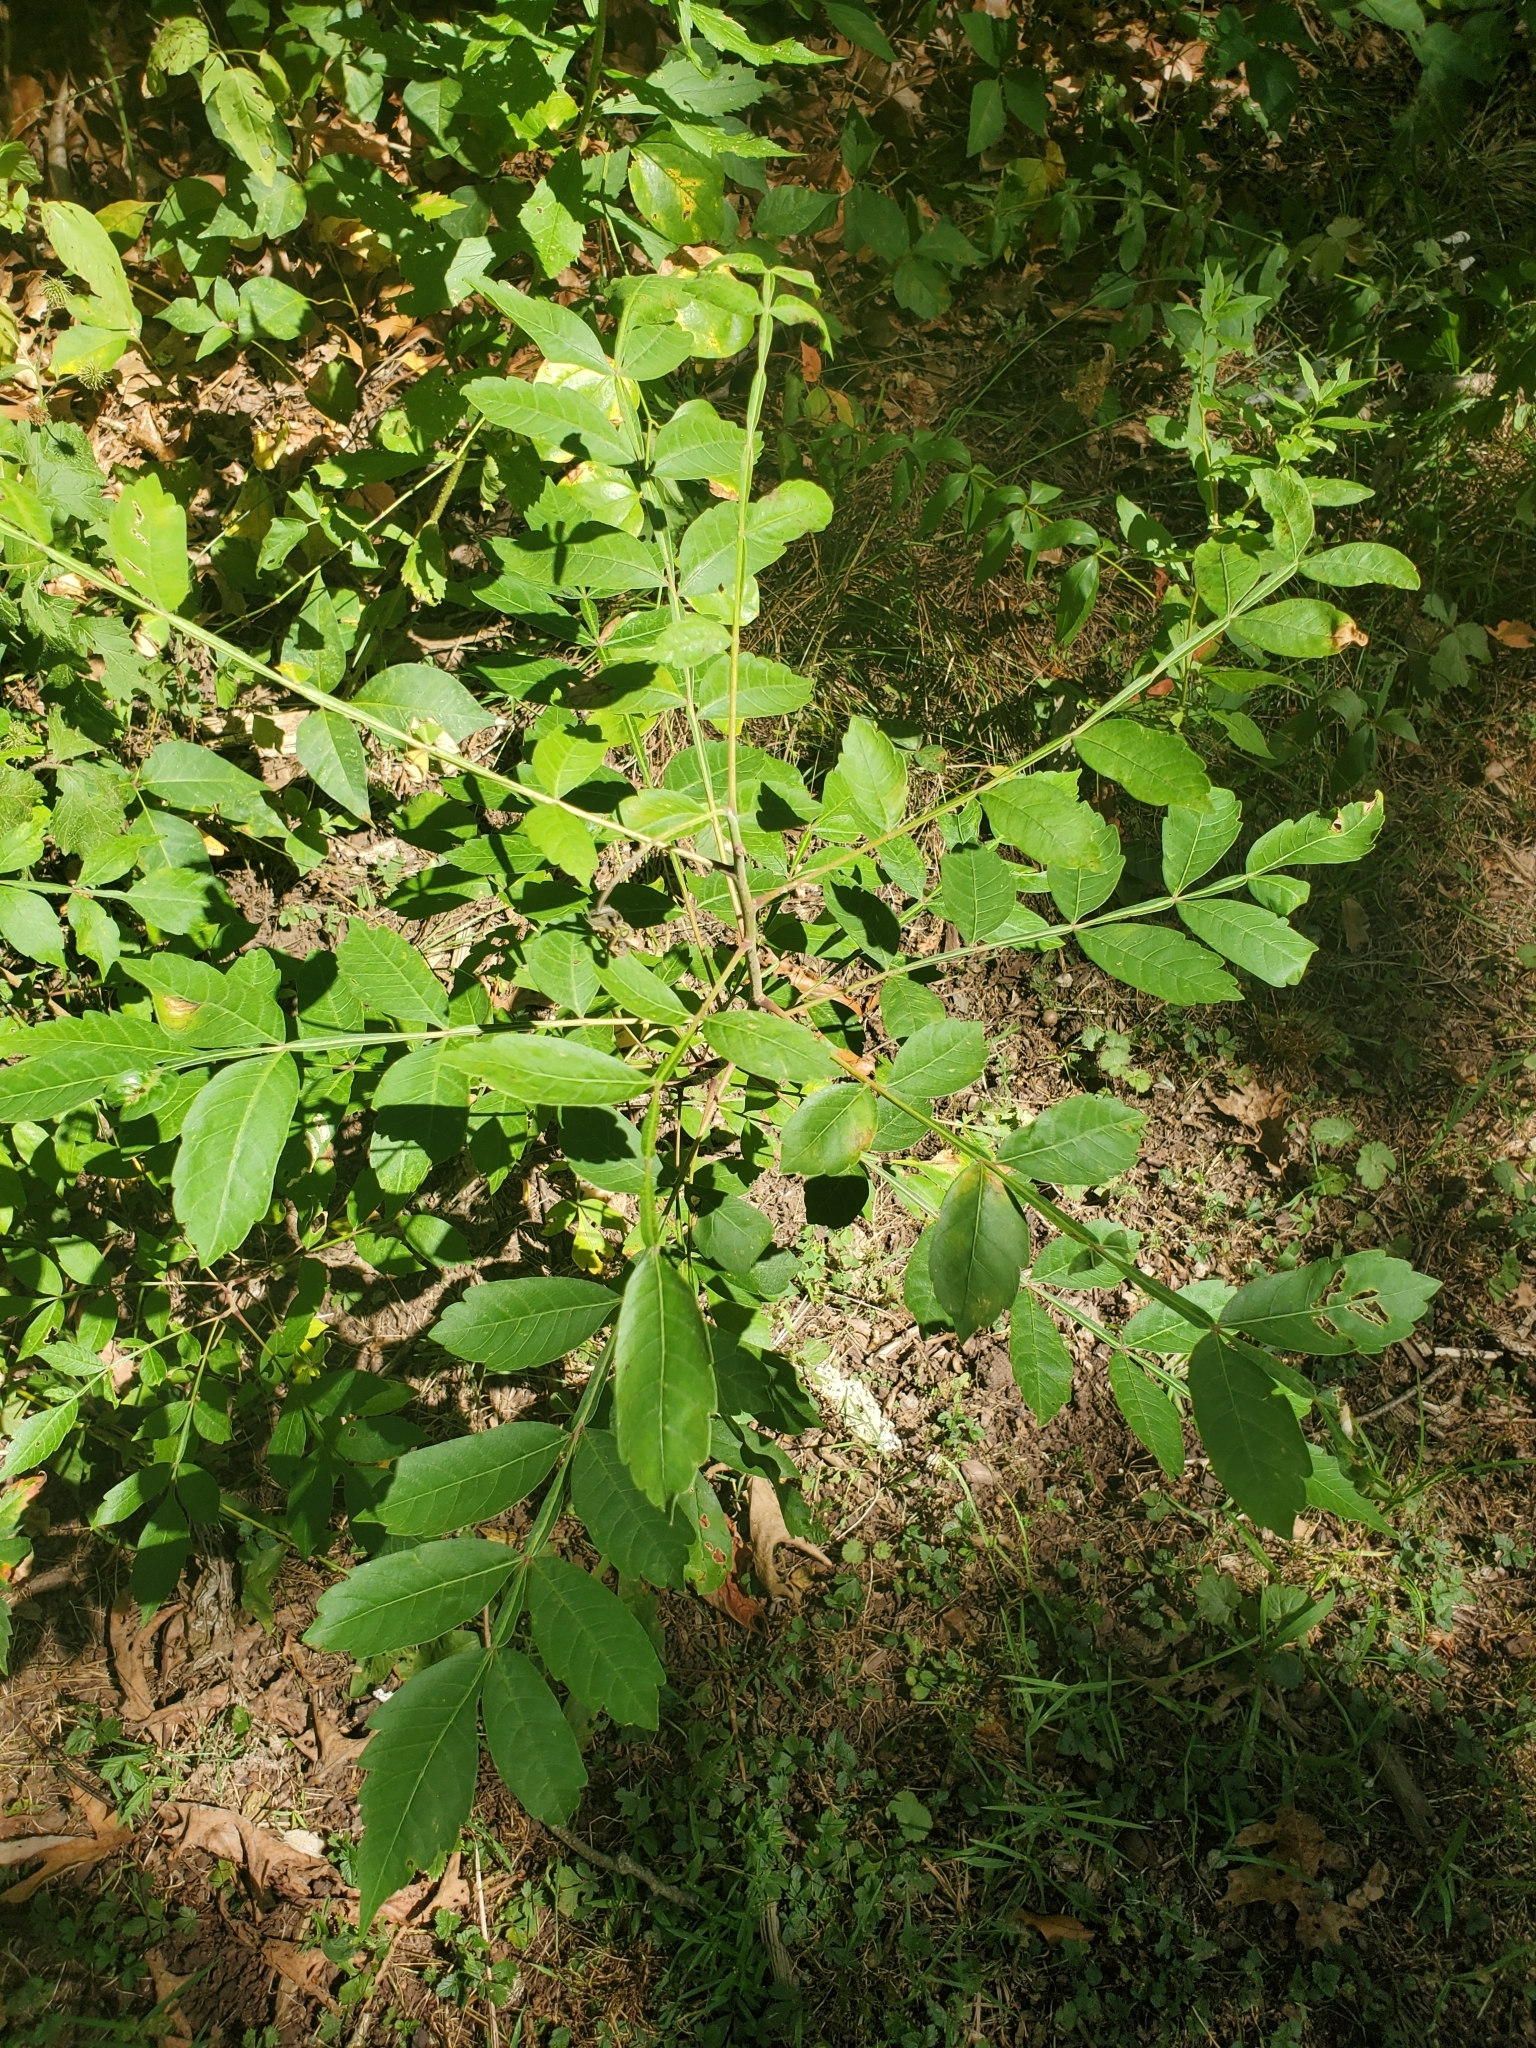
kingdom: Plantae
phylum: Tracheophyta
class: Magnoliopsida
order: Sapindales
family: Anacardiaceae
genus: Rhus
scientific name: Rhus copallina
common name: Shining sumac
